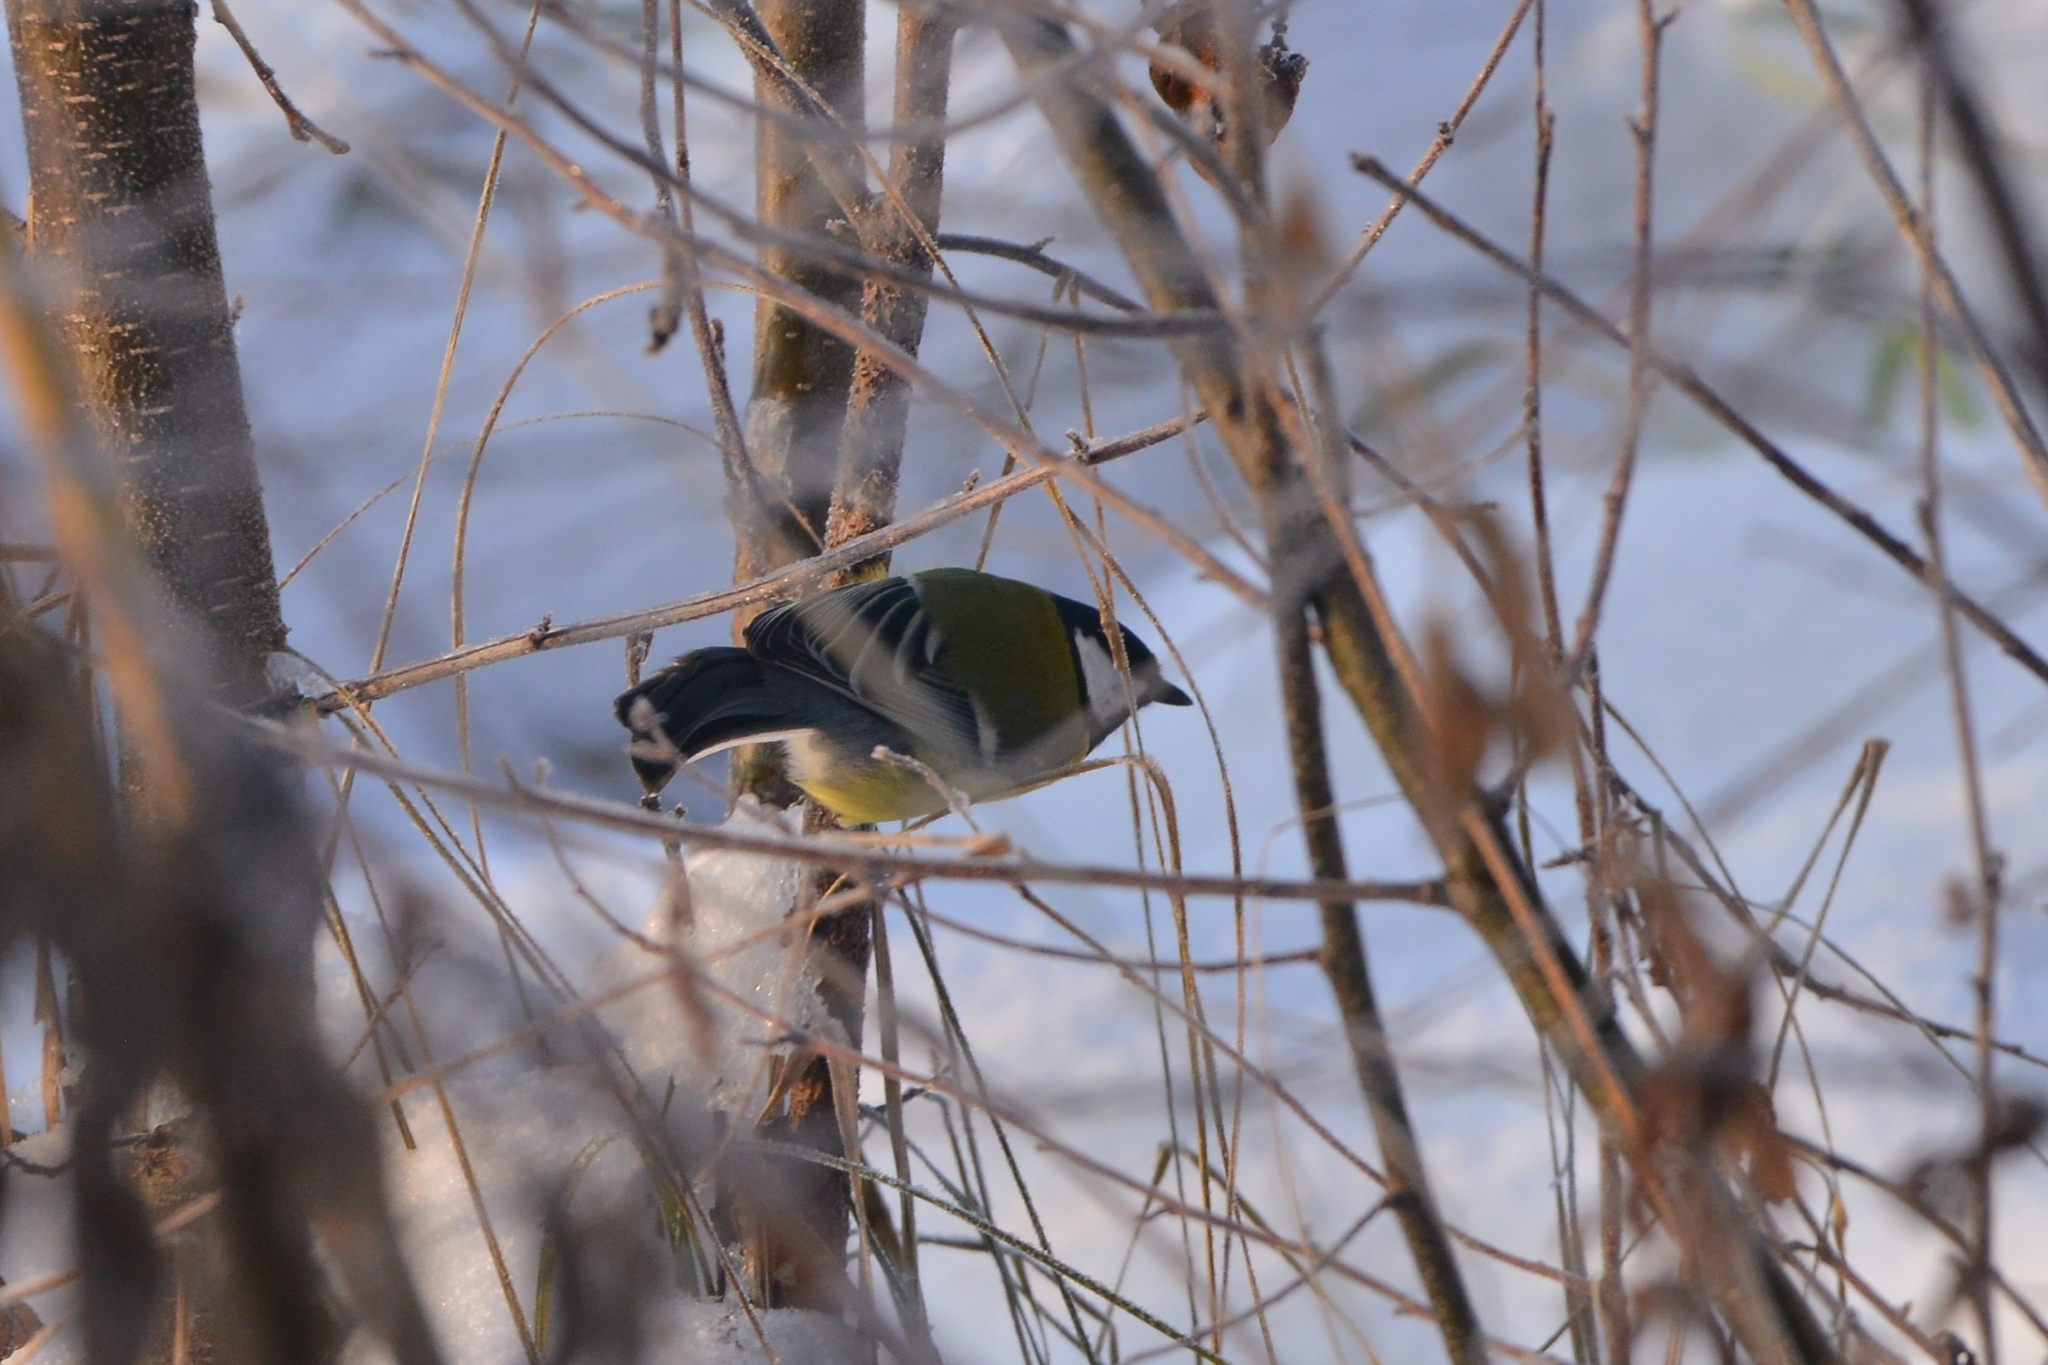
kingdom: Animalia
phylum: Chordata
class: Aves
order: Passeriformes
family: Paridae
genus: Parus
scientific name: Parus major
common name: Great tit
